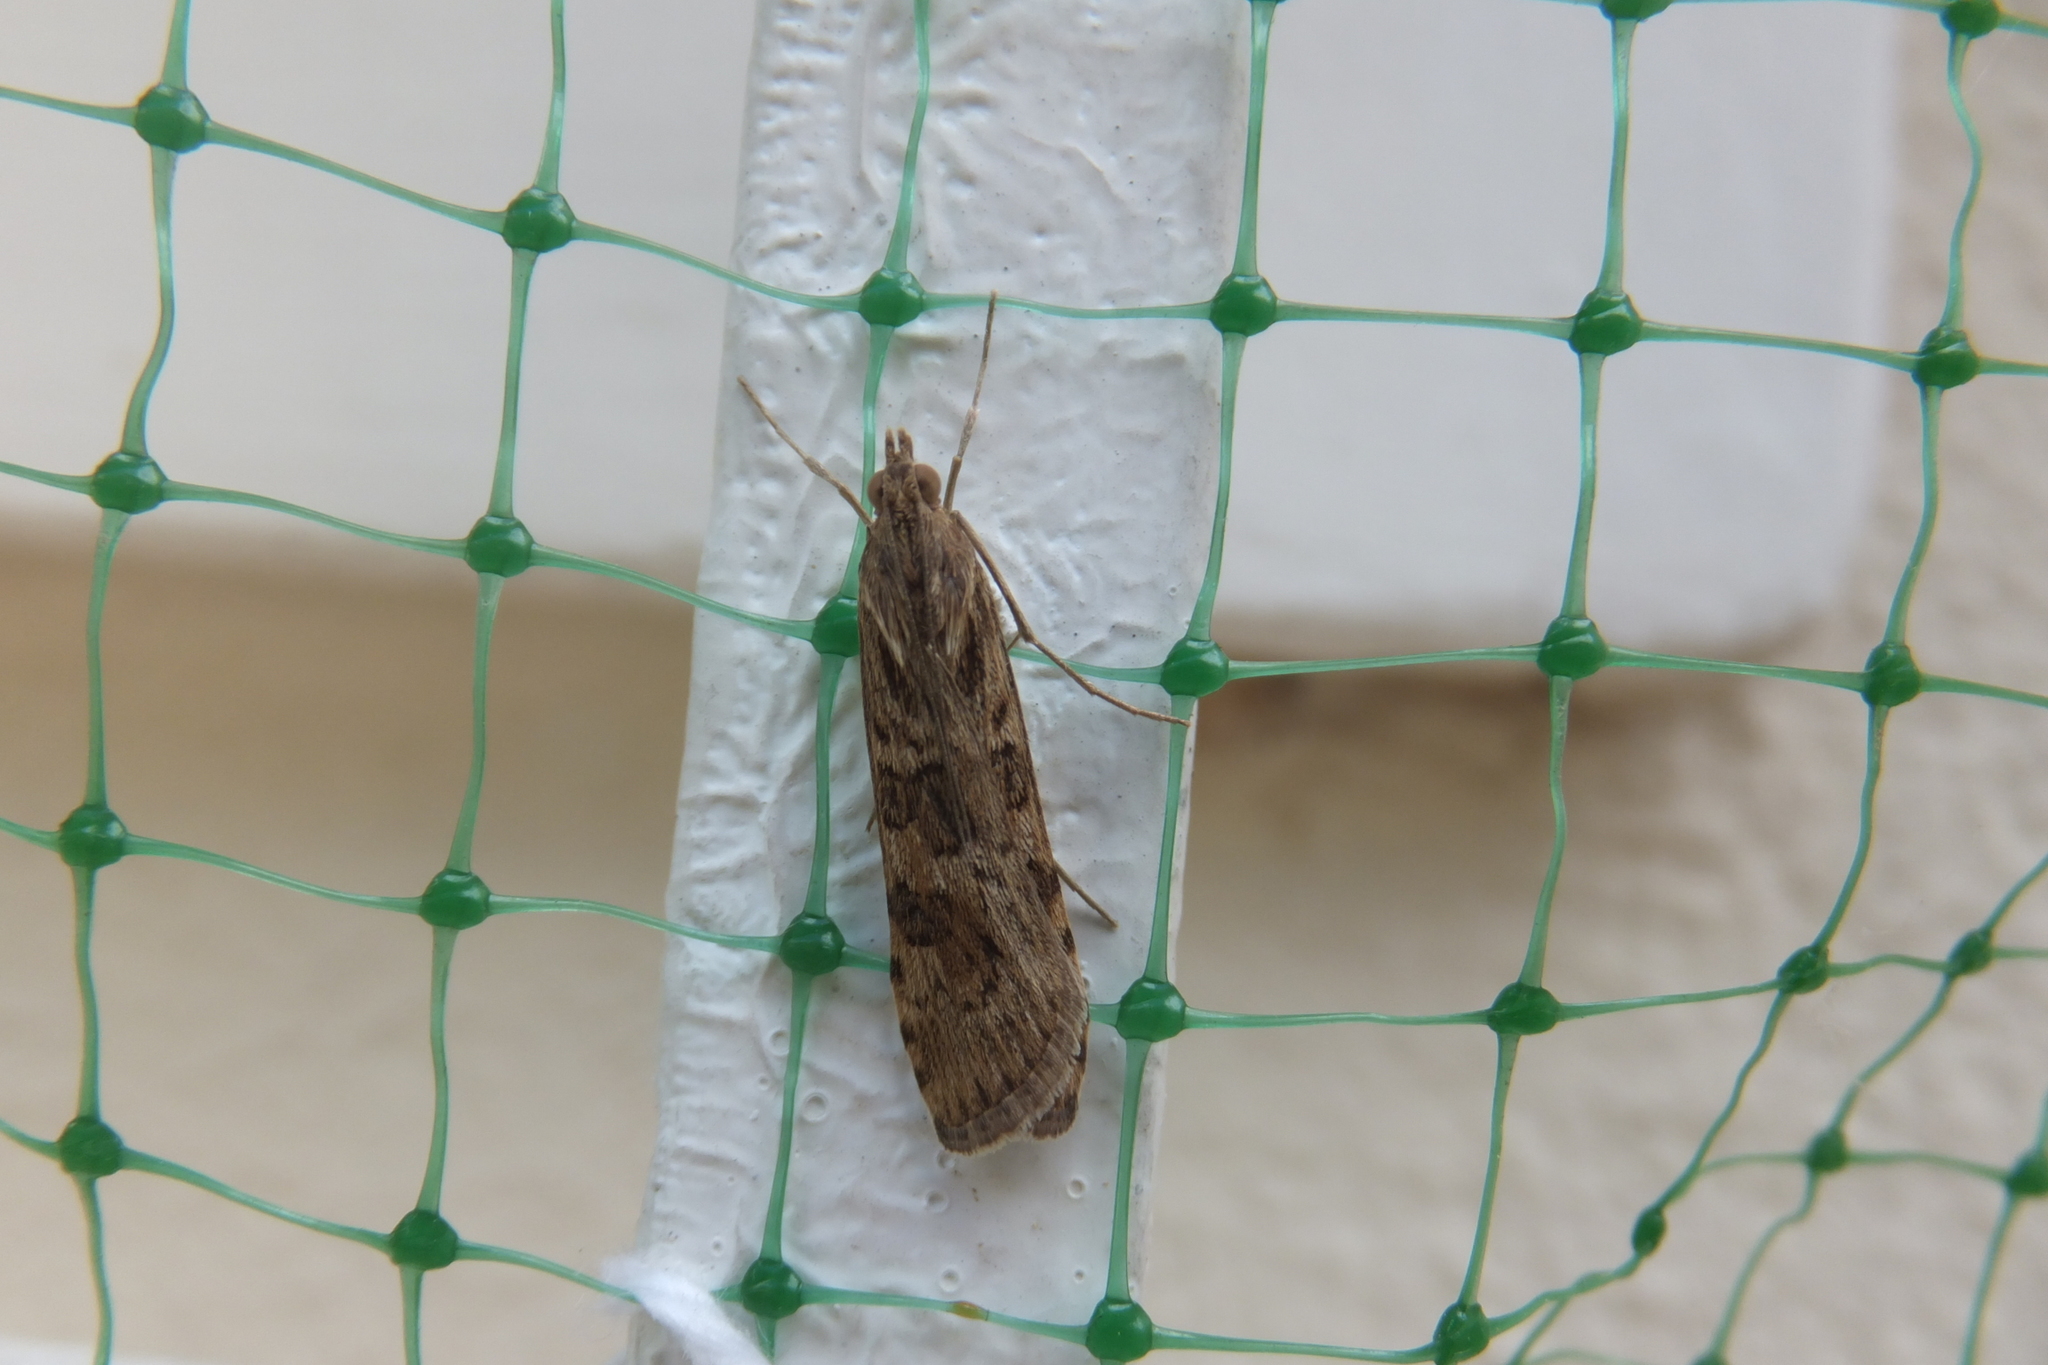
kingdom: Animalia
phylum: Arthropoda
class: Insecta
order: Lepidoptera
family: Crambidae
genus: Nomophila
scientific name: Nomophila noctuella
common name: Rush veneer
